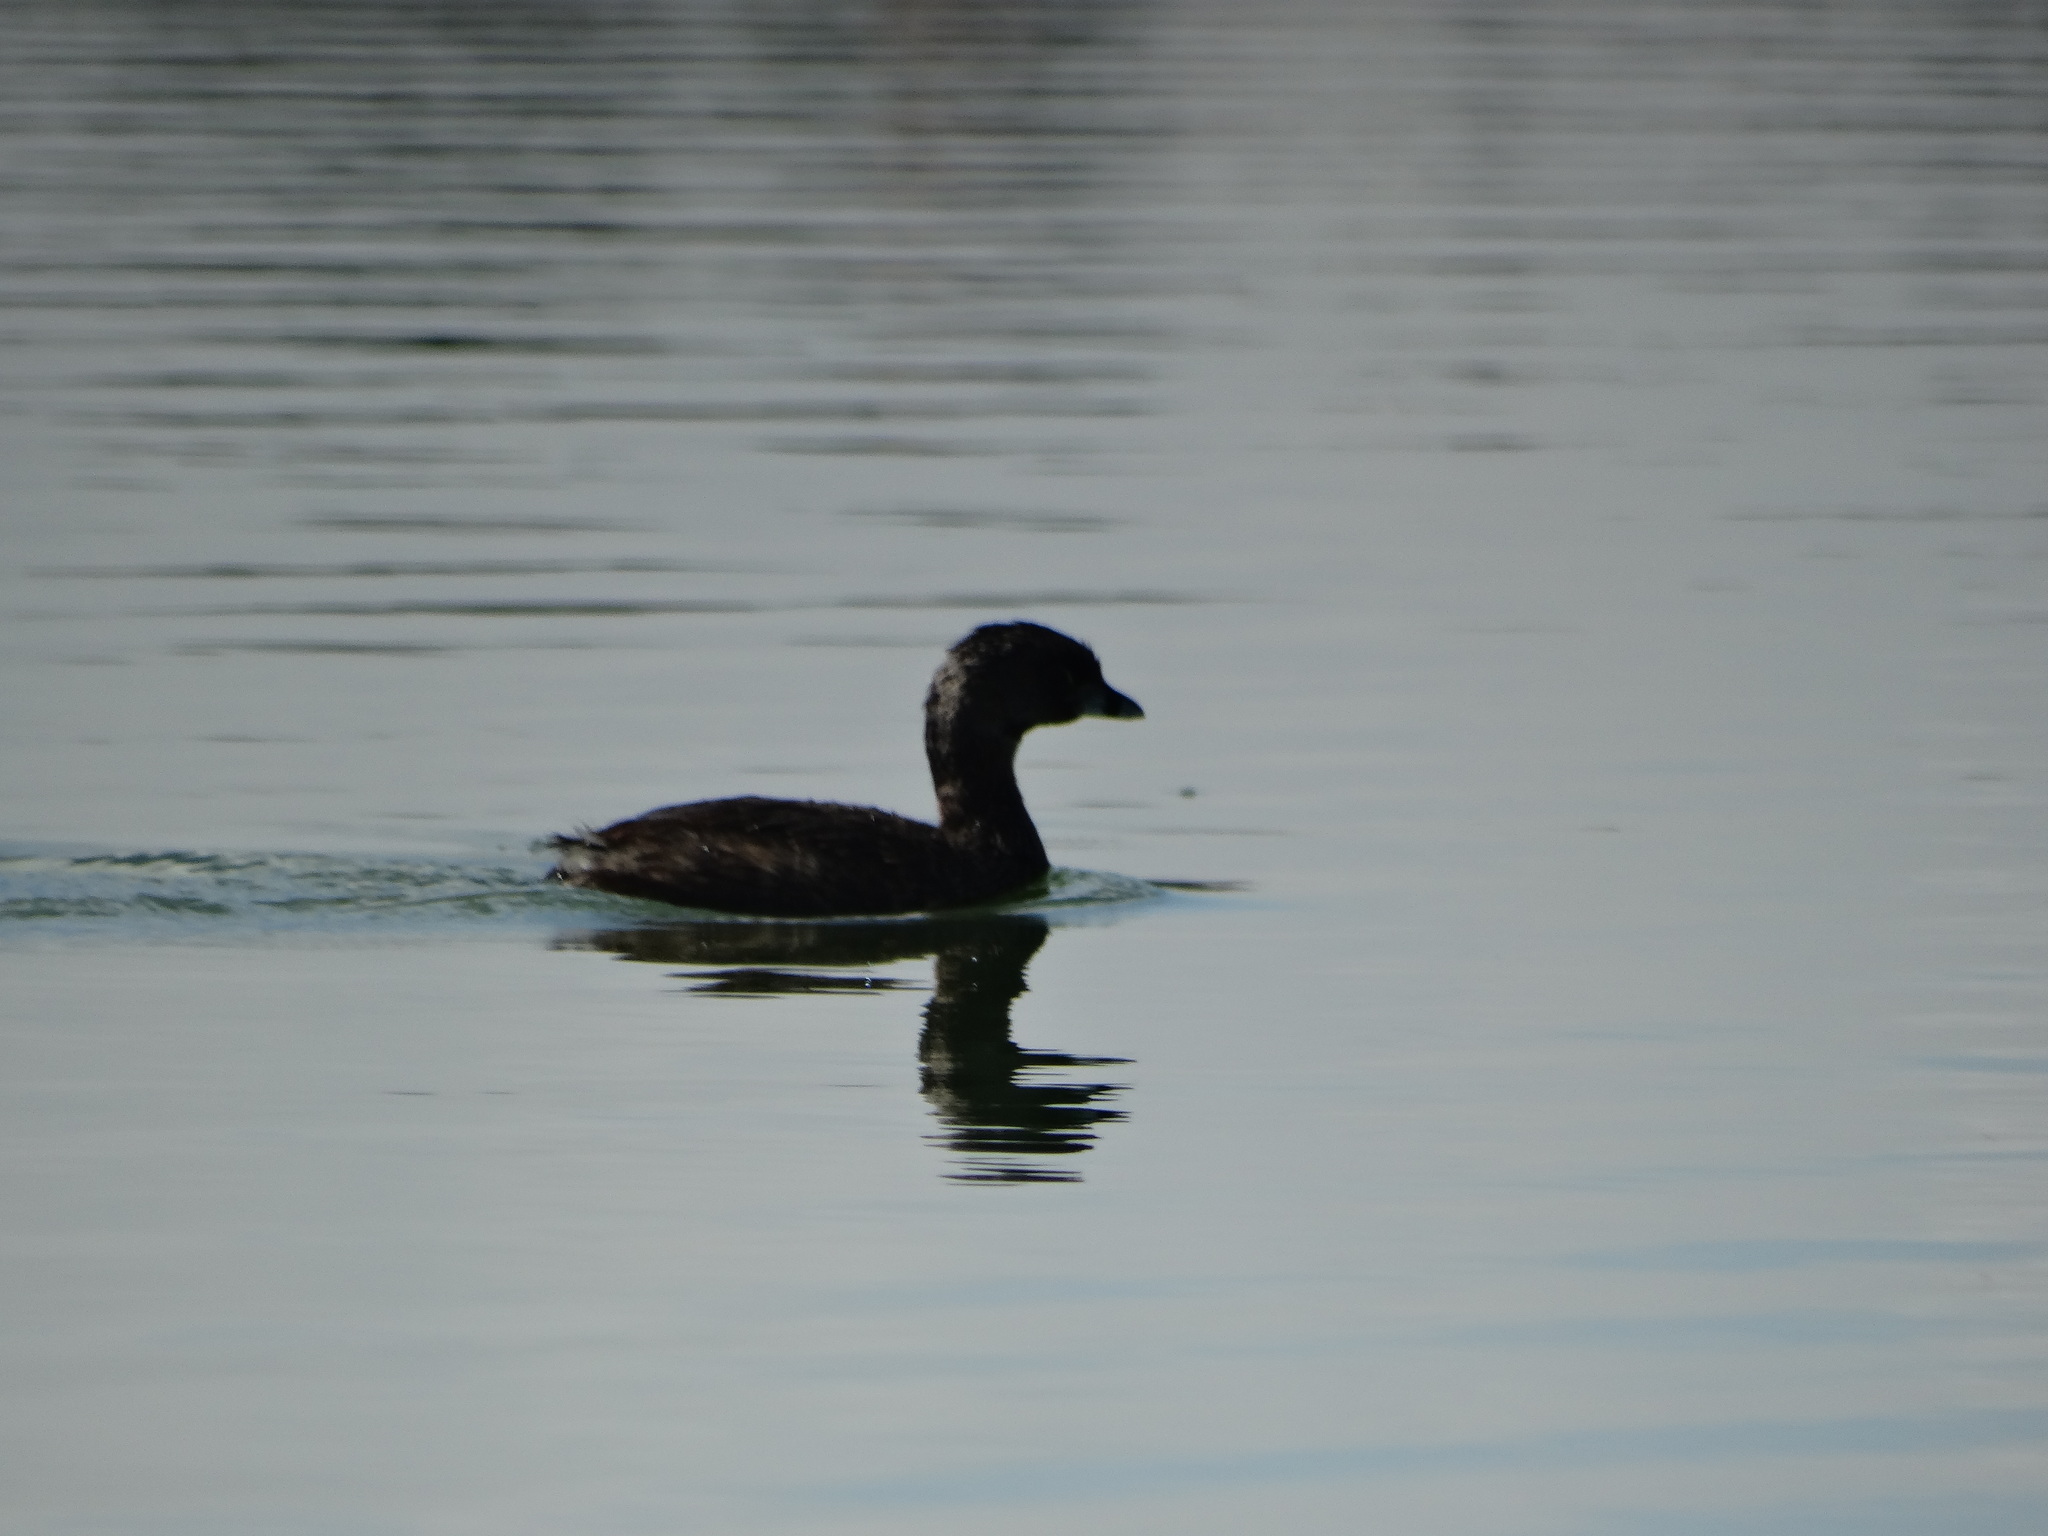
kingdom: Animalia
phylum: Chordata
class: Aves
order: Podicipediformes
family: Podicipedidae
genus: Podilymbus
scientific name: Podilymbus podiceps
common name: Pied-billed grebe
